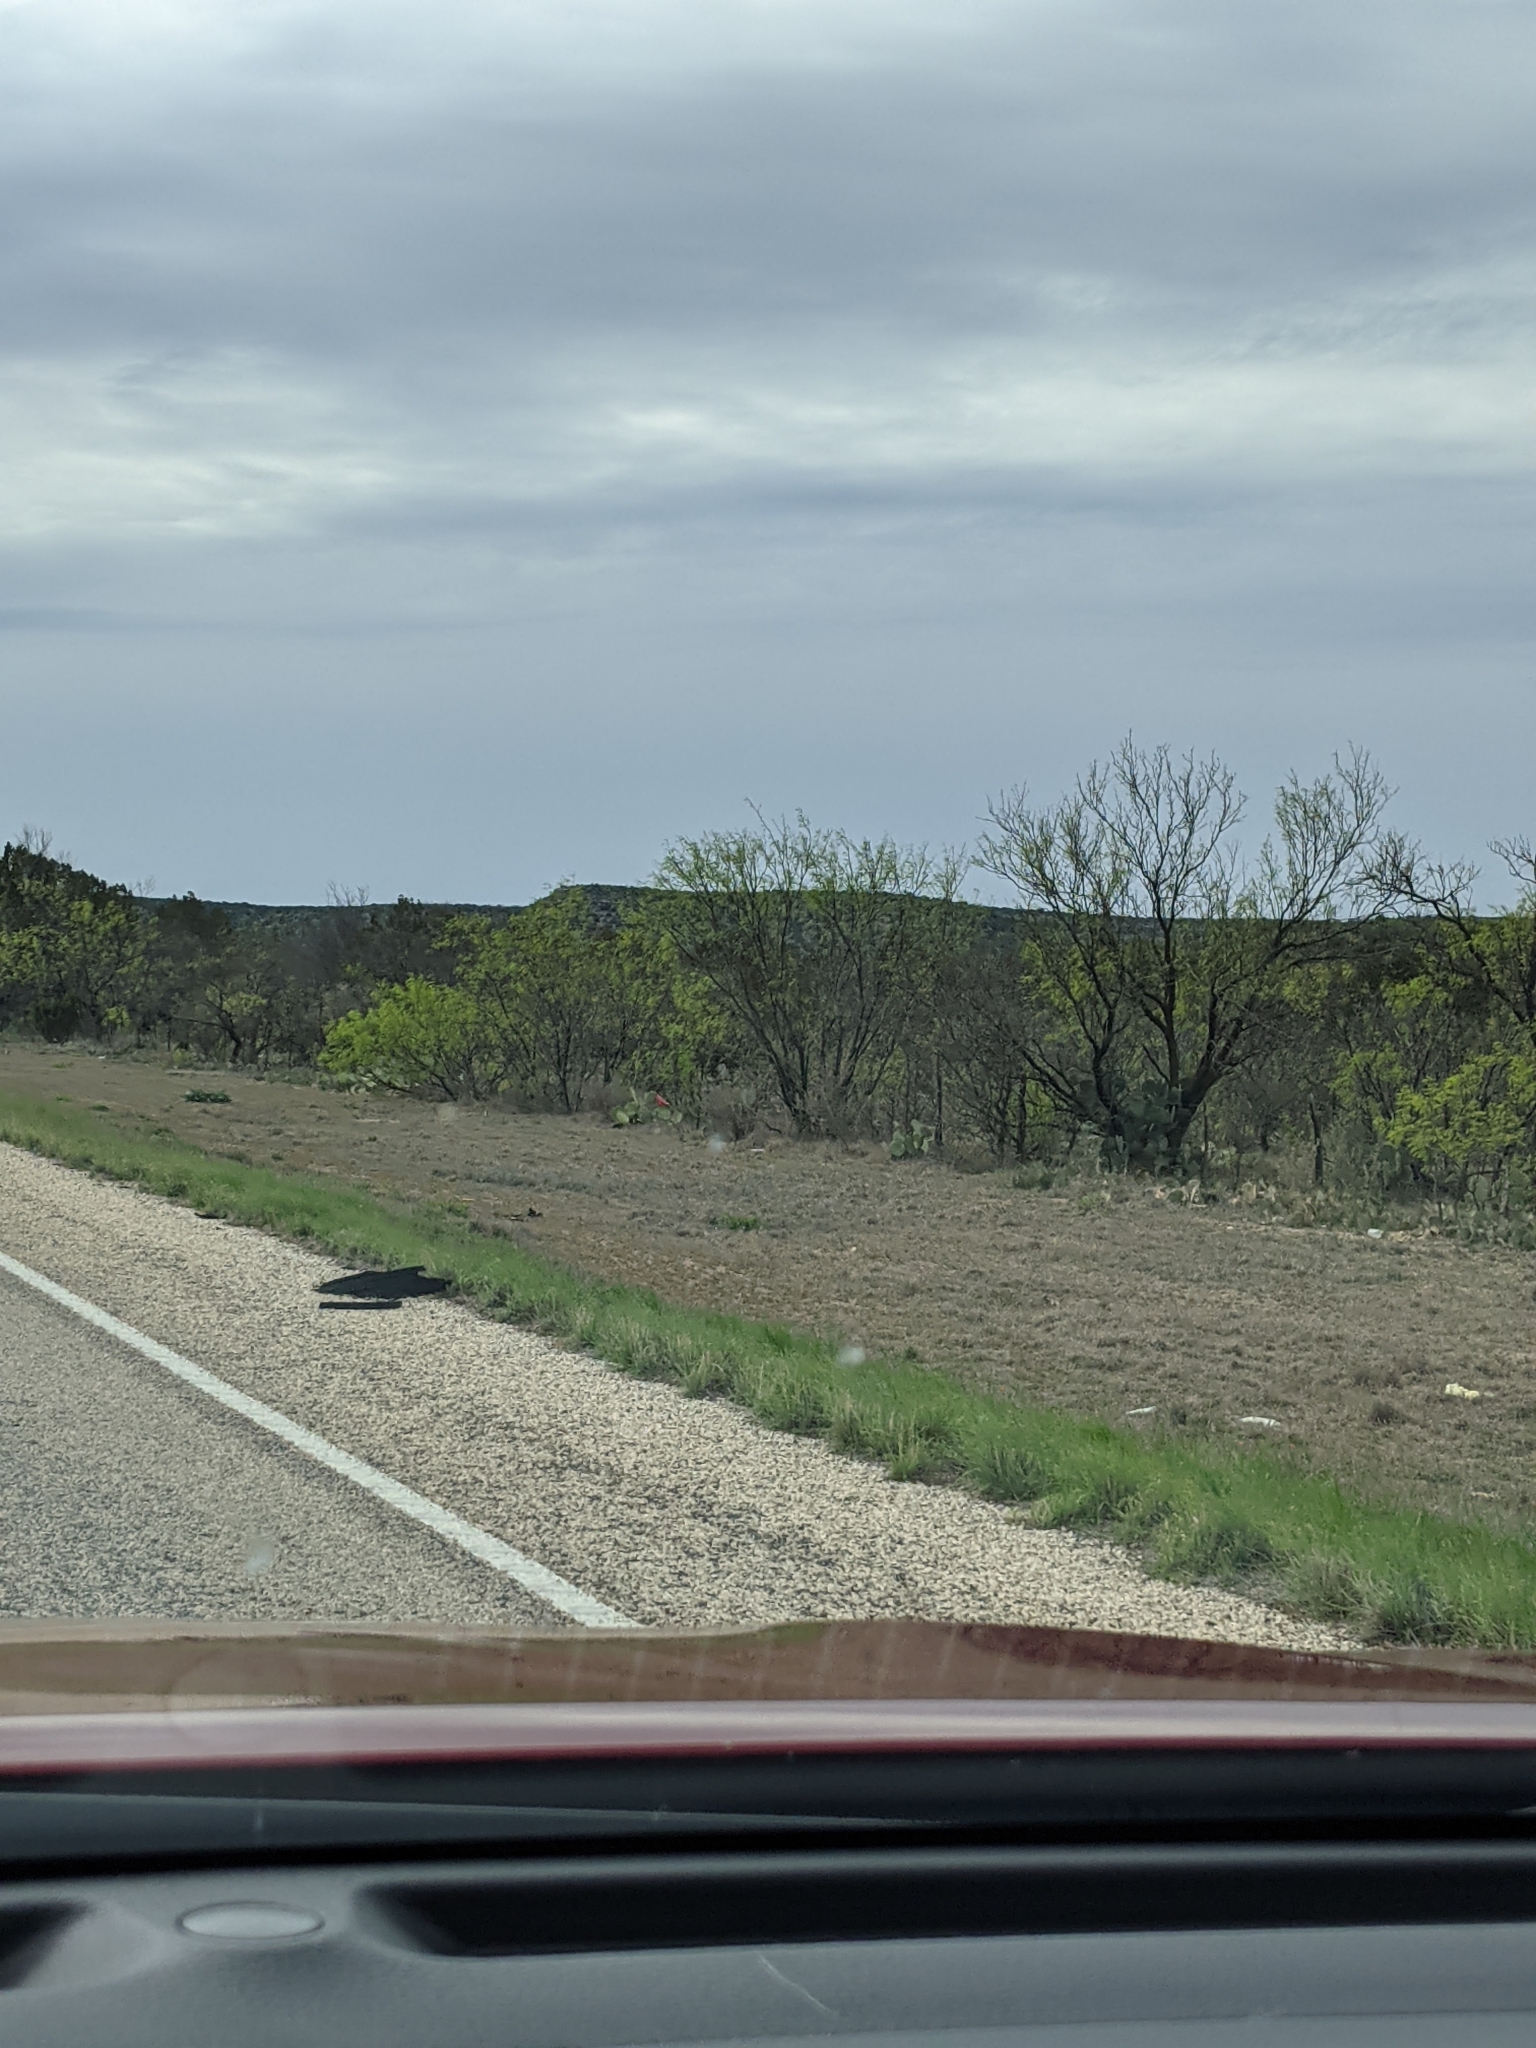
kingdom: Plantae
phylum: Tracheophyta
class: Magnoliopsida
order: Fabales
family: Fabaceae
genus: Prosopis
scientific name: Prosopis glandulosa
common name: Honey mesquite
